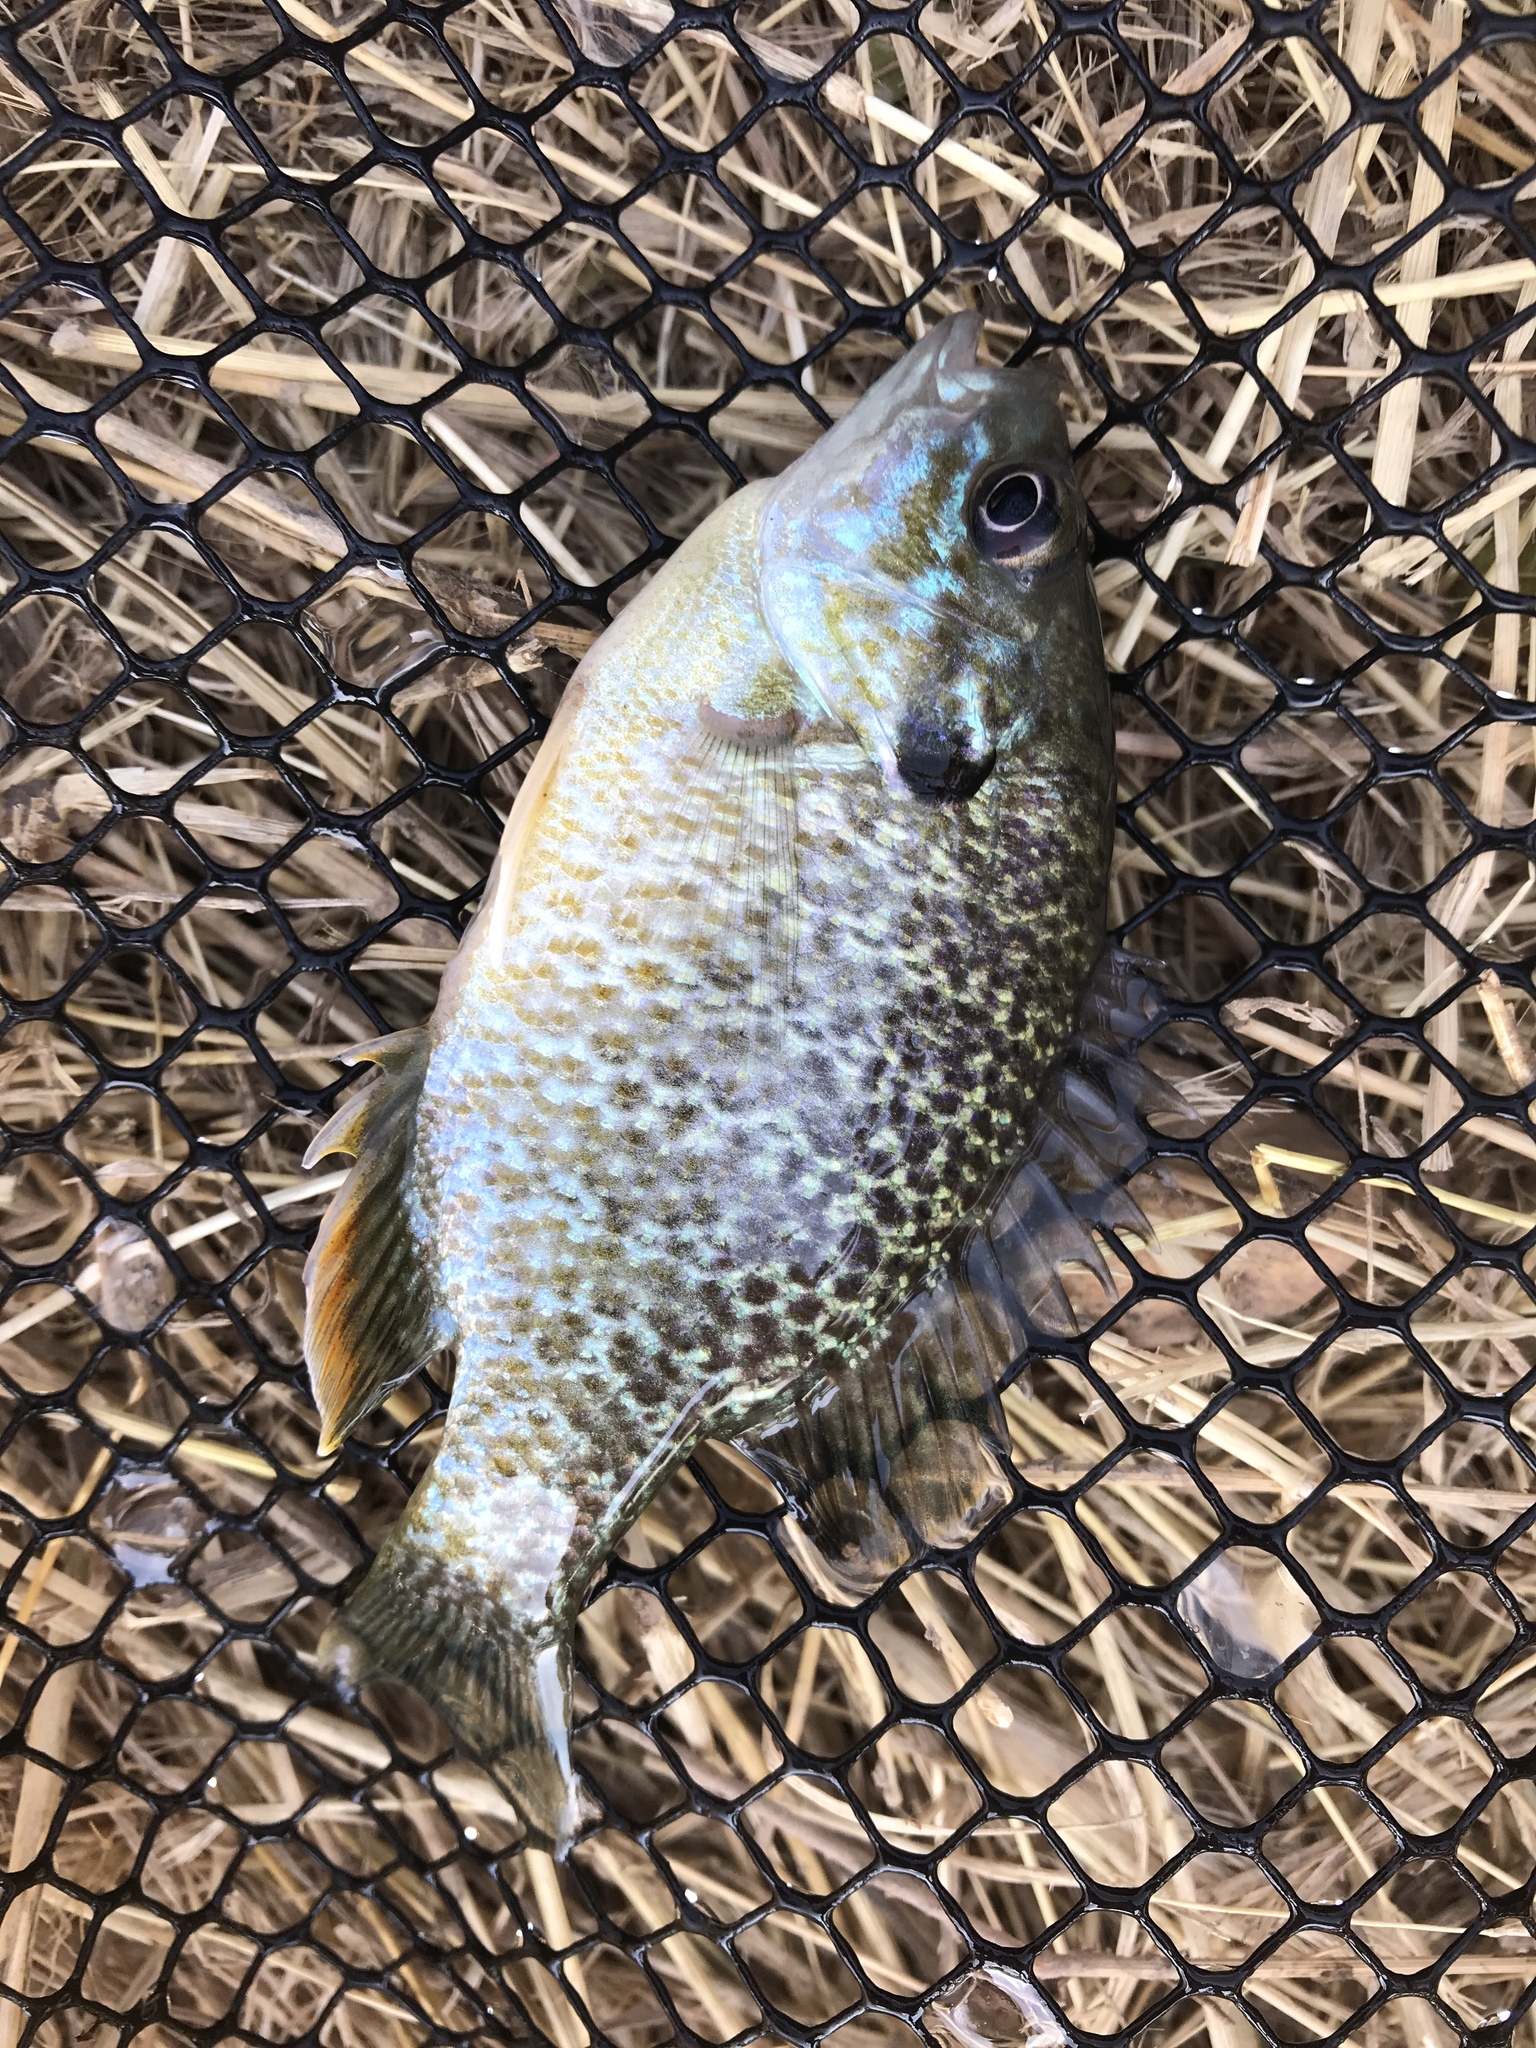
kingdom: Animalia
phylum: Chordata
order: Perciformes
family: Centrarchidae
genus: Lepomis
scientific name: Lepomis
